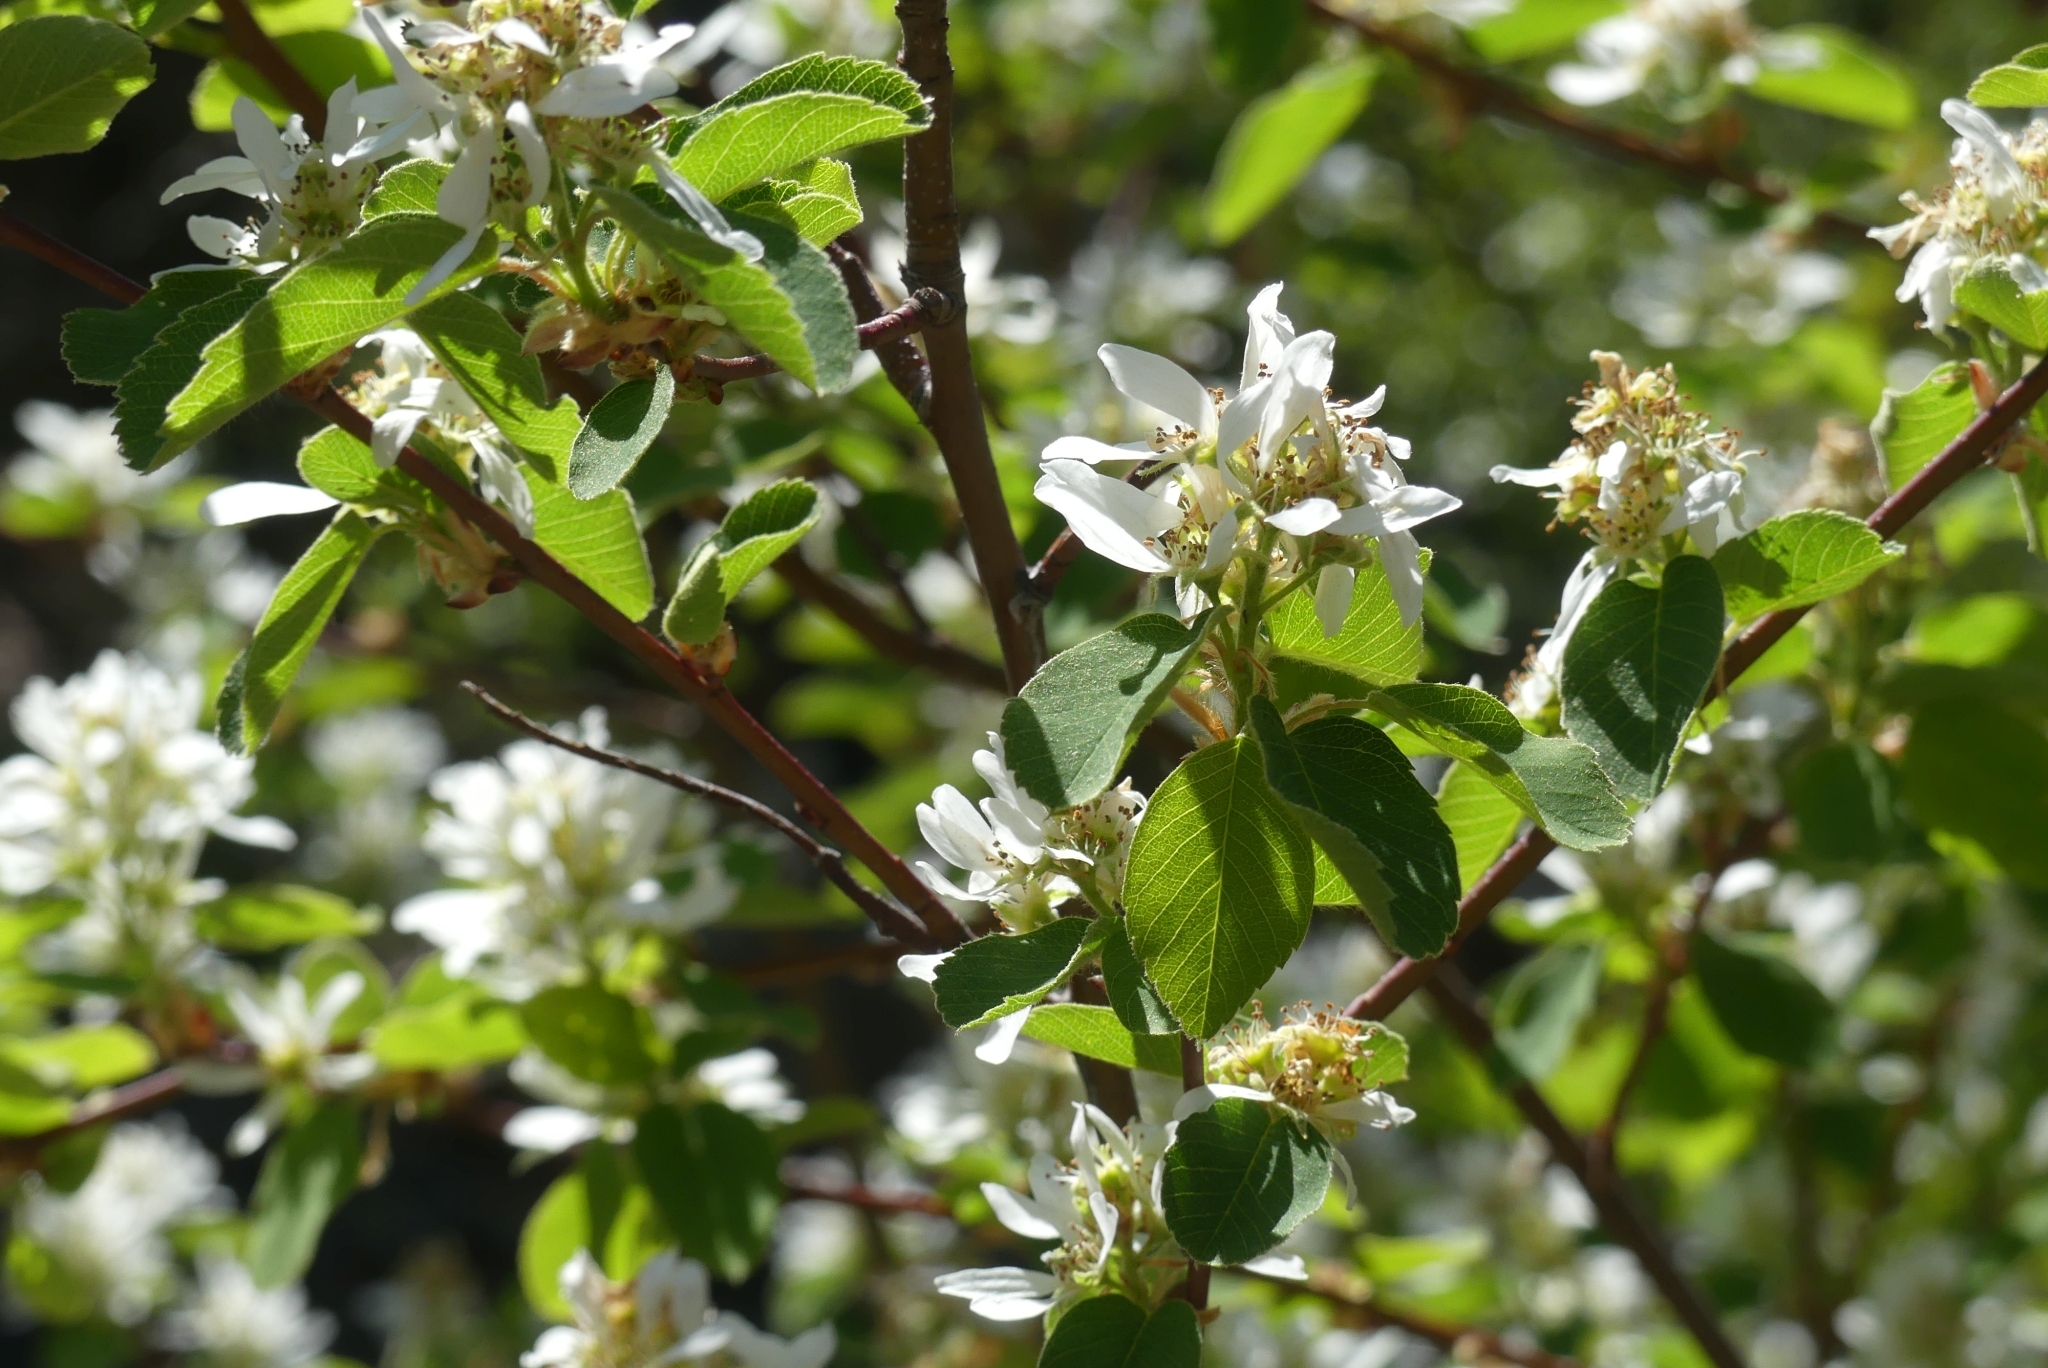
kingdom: Plantae
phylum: Tracheophyta
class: Magnoliopsida
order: Rosales
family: Rosaceae
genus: Amelanchier
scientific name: Amelanchier alnifolia
